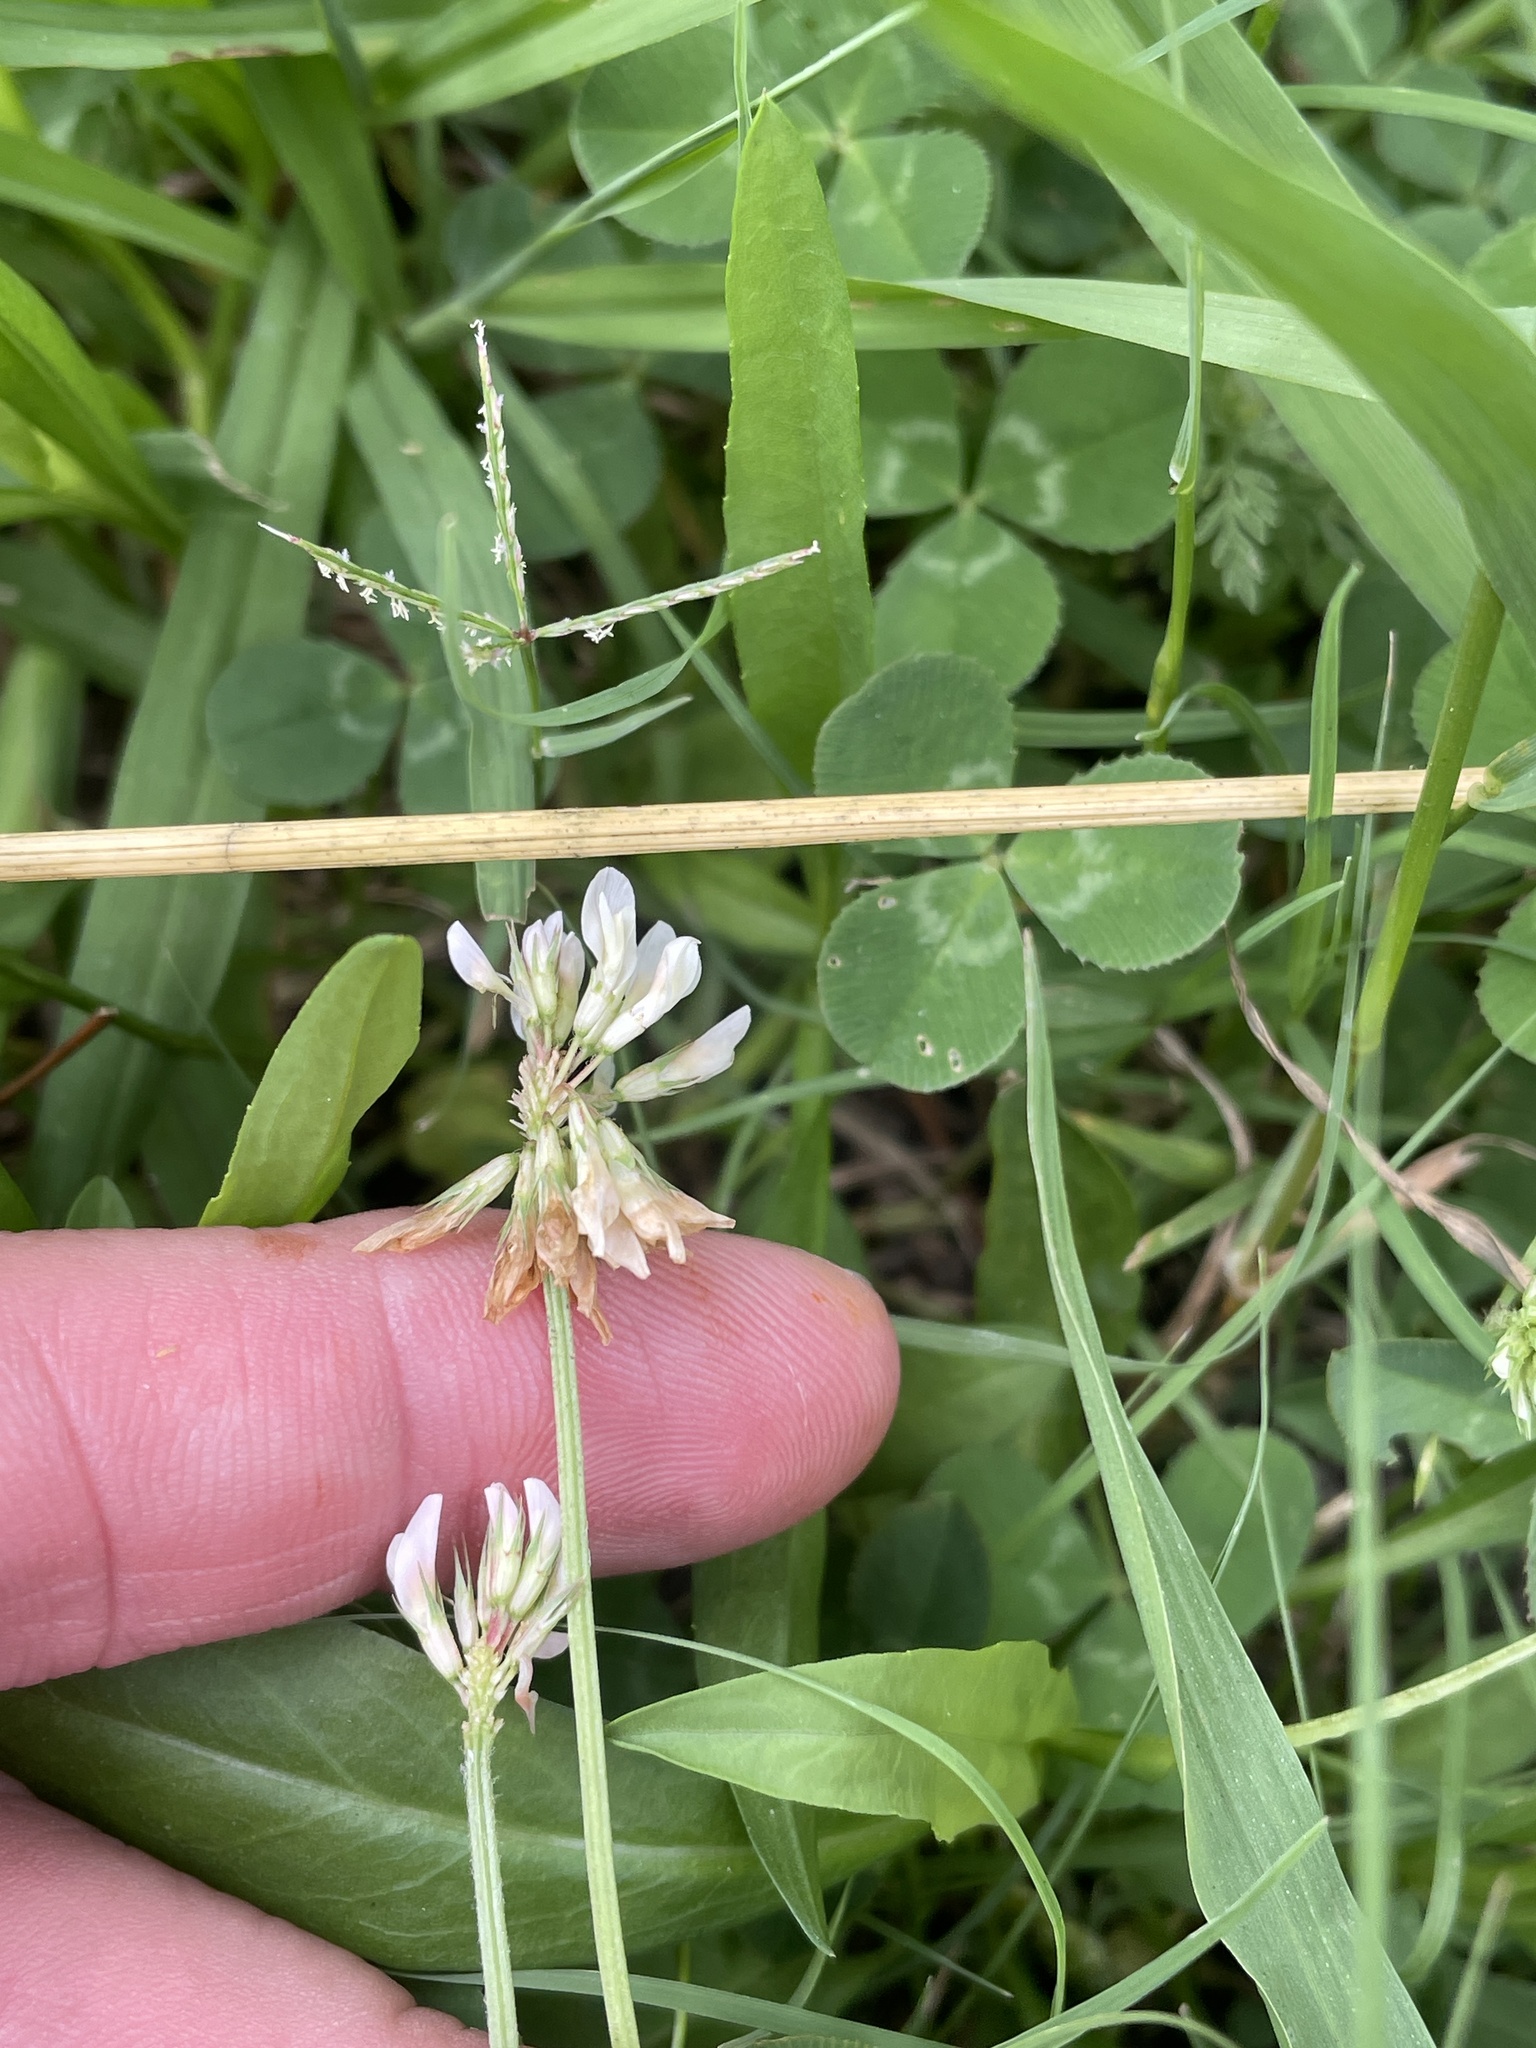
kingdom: Plantae
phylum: Tracheophyta
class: Magnoliopsida
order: Fabales
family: Fabaceae
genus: Trifolium
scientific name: Trifolium repens
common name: White clover
